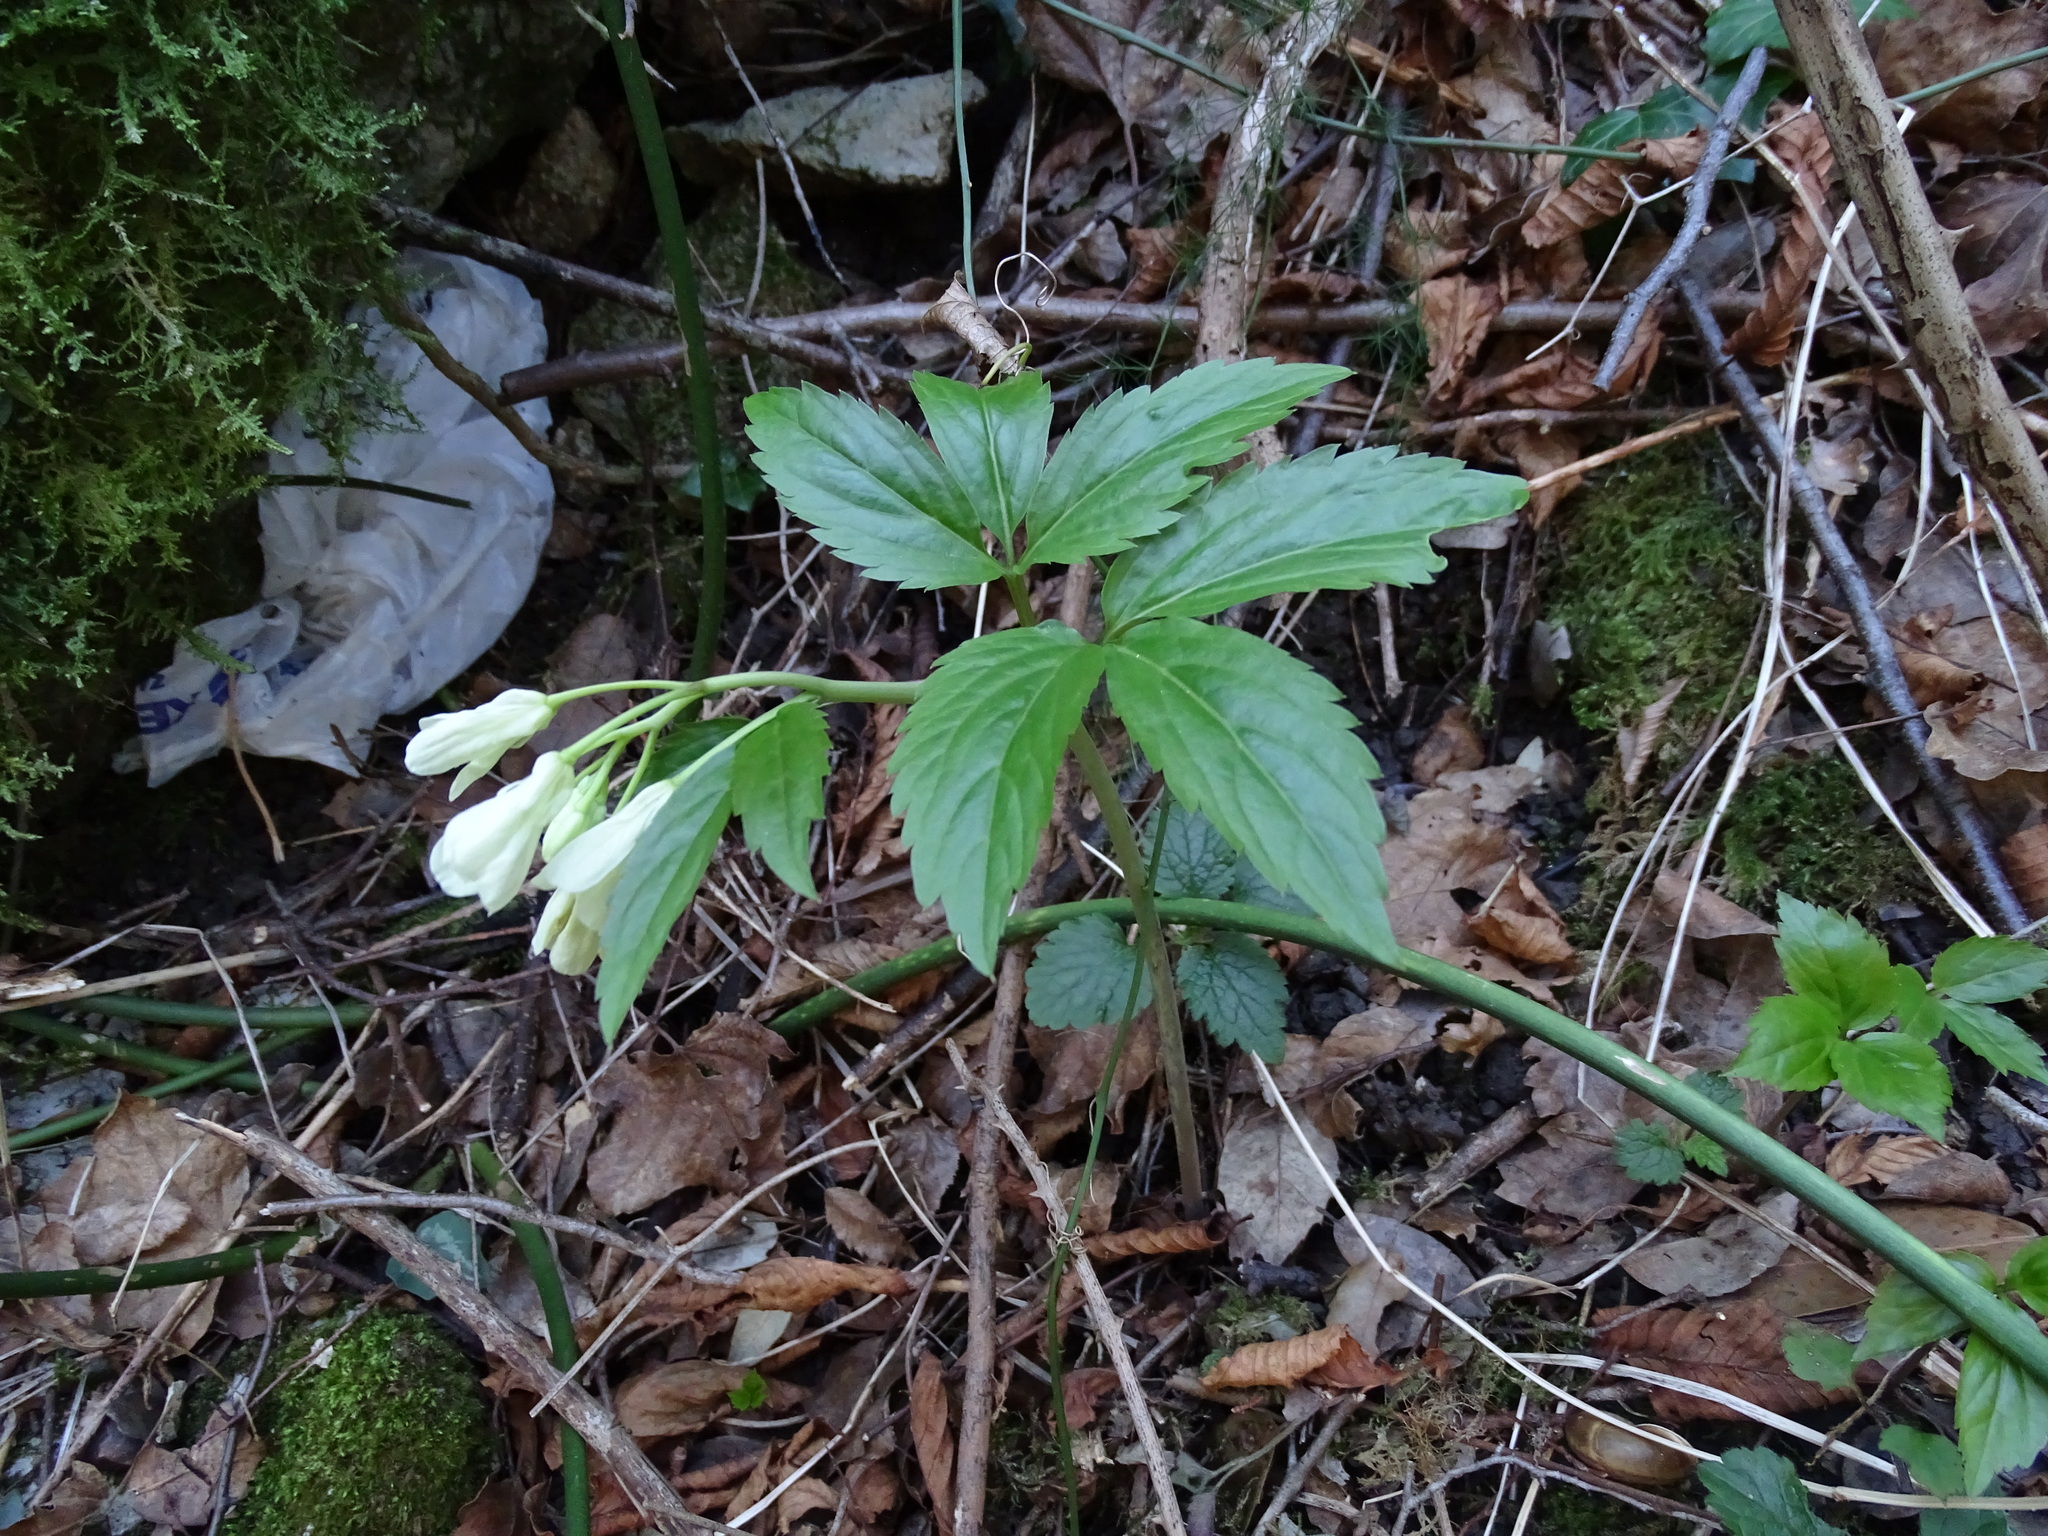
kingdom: Plantae
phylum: Tracheophyta
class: Magnoliopsida
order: Brassicales
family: Brassicaceae
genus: Cardamine
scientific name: Cardamine enneaphyllos
